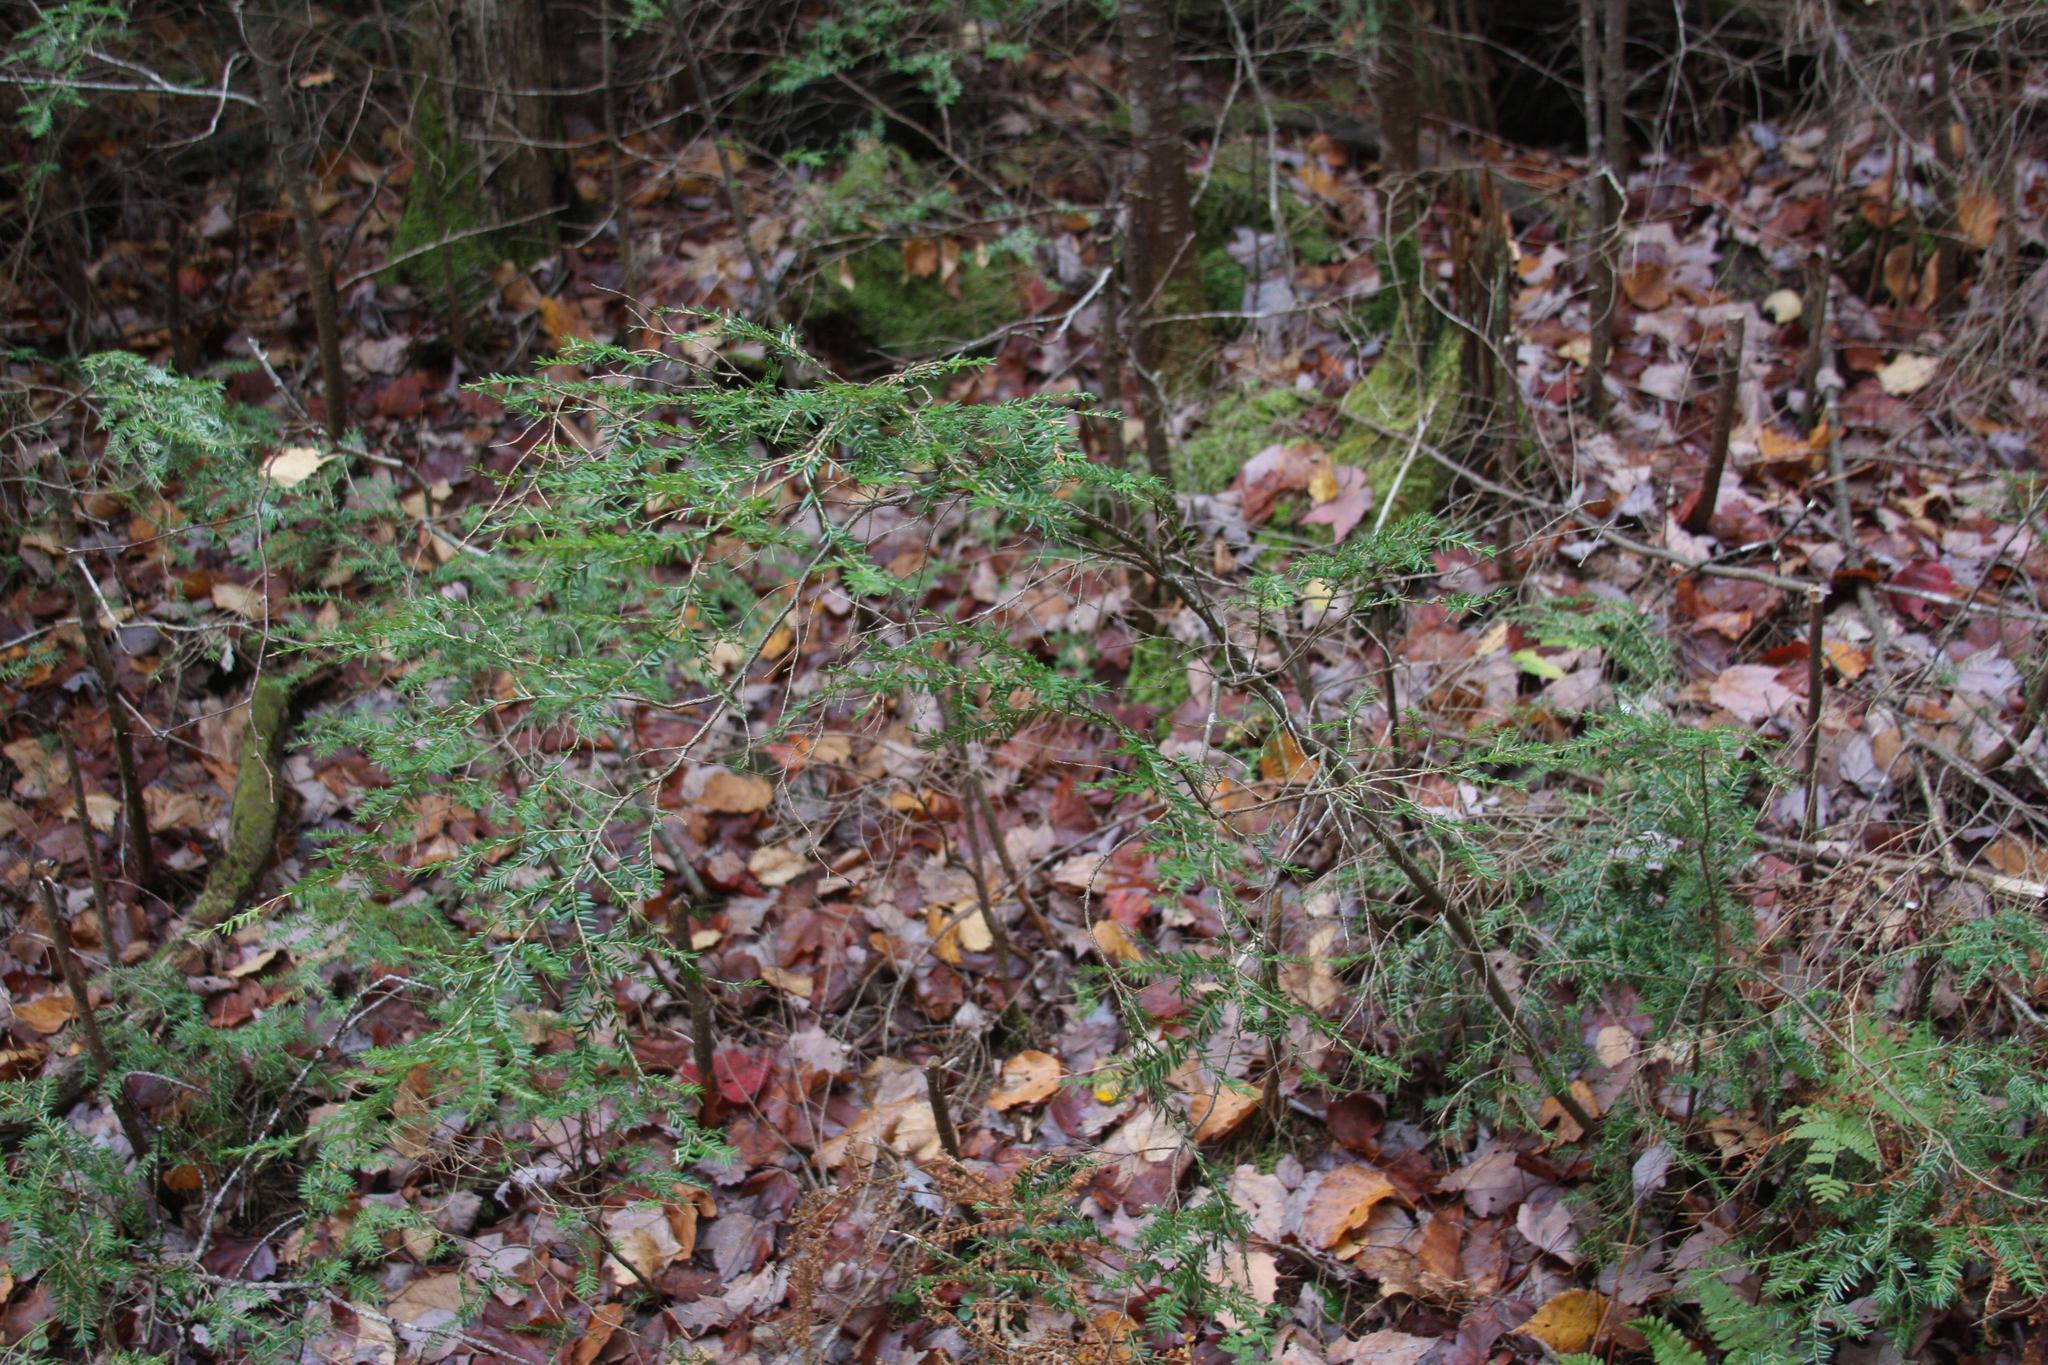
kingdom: Plantae
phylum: Tracheophyta
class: Pinopsida
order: Pinales
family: Pinaceae
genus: Tsuga
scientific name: Tsuga canadensis
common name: Eastern hemlock
